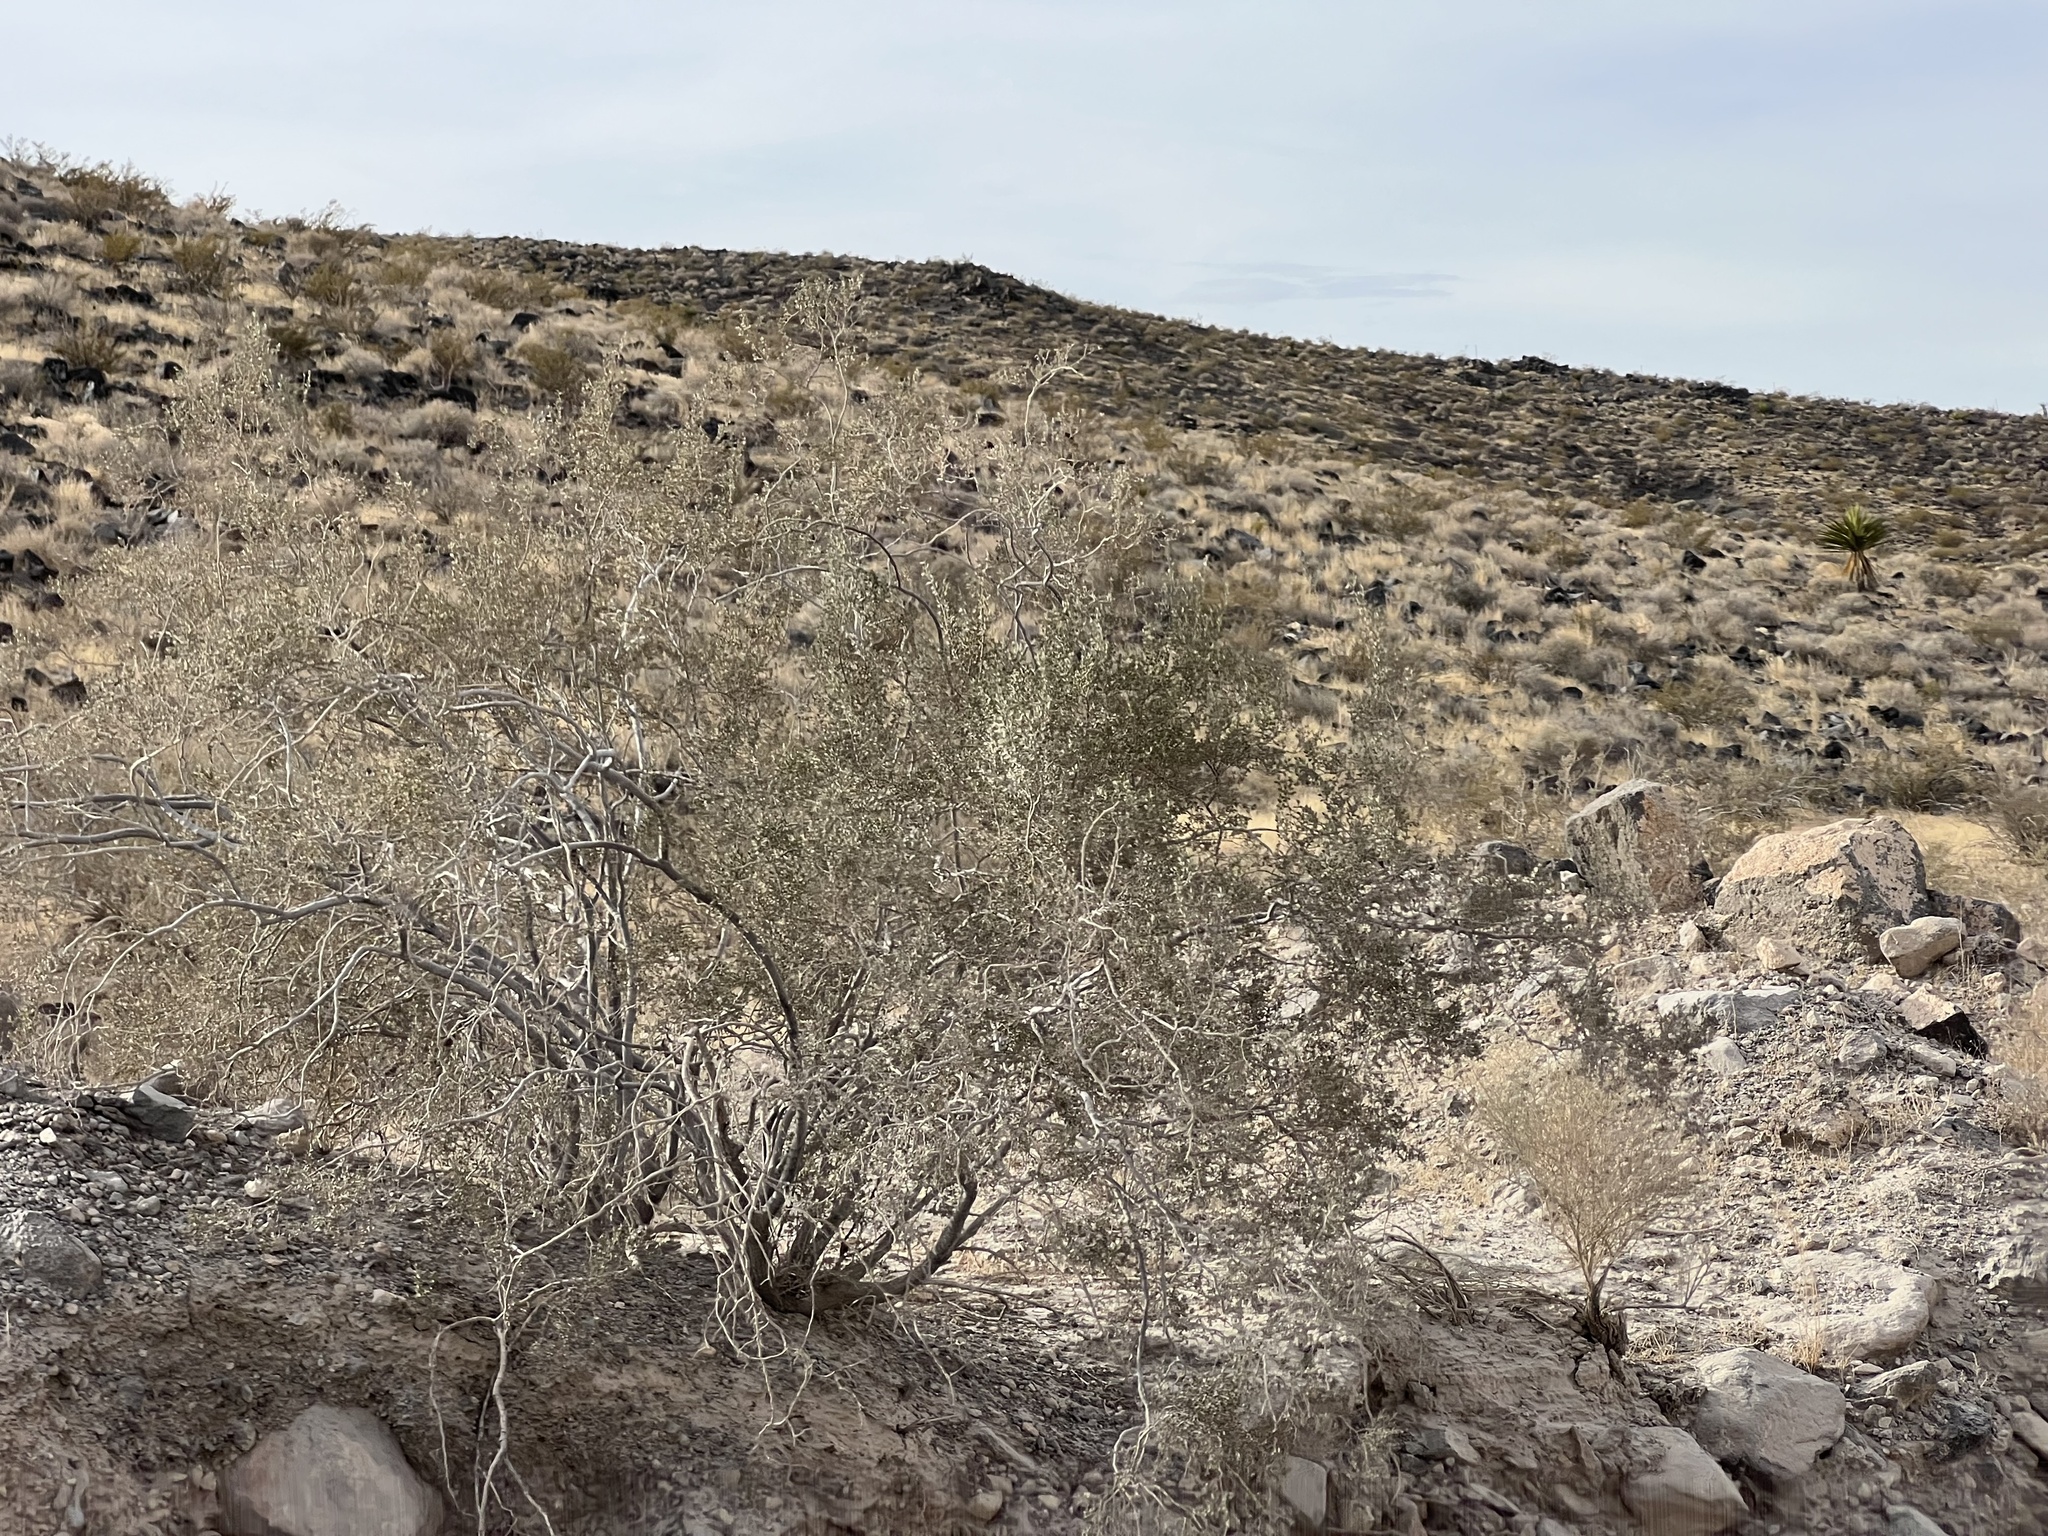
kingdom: Plantae
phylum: Tracheophyta
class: Magnoliopsida
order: Zygophyllales
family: Zygophyllaceae
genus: Larrea
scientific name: Larrea tridentata
